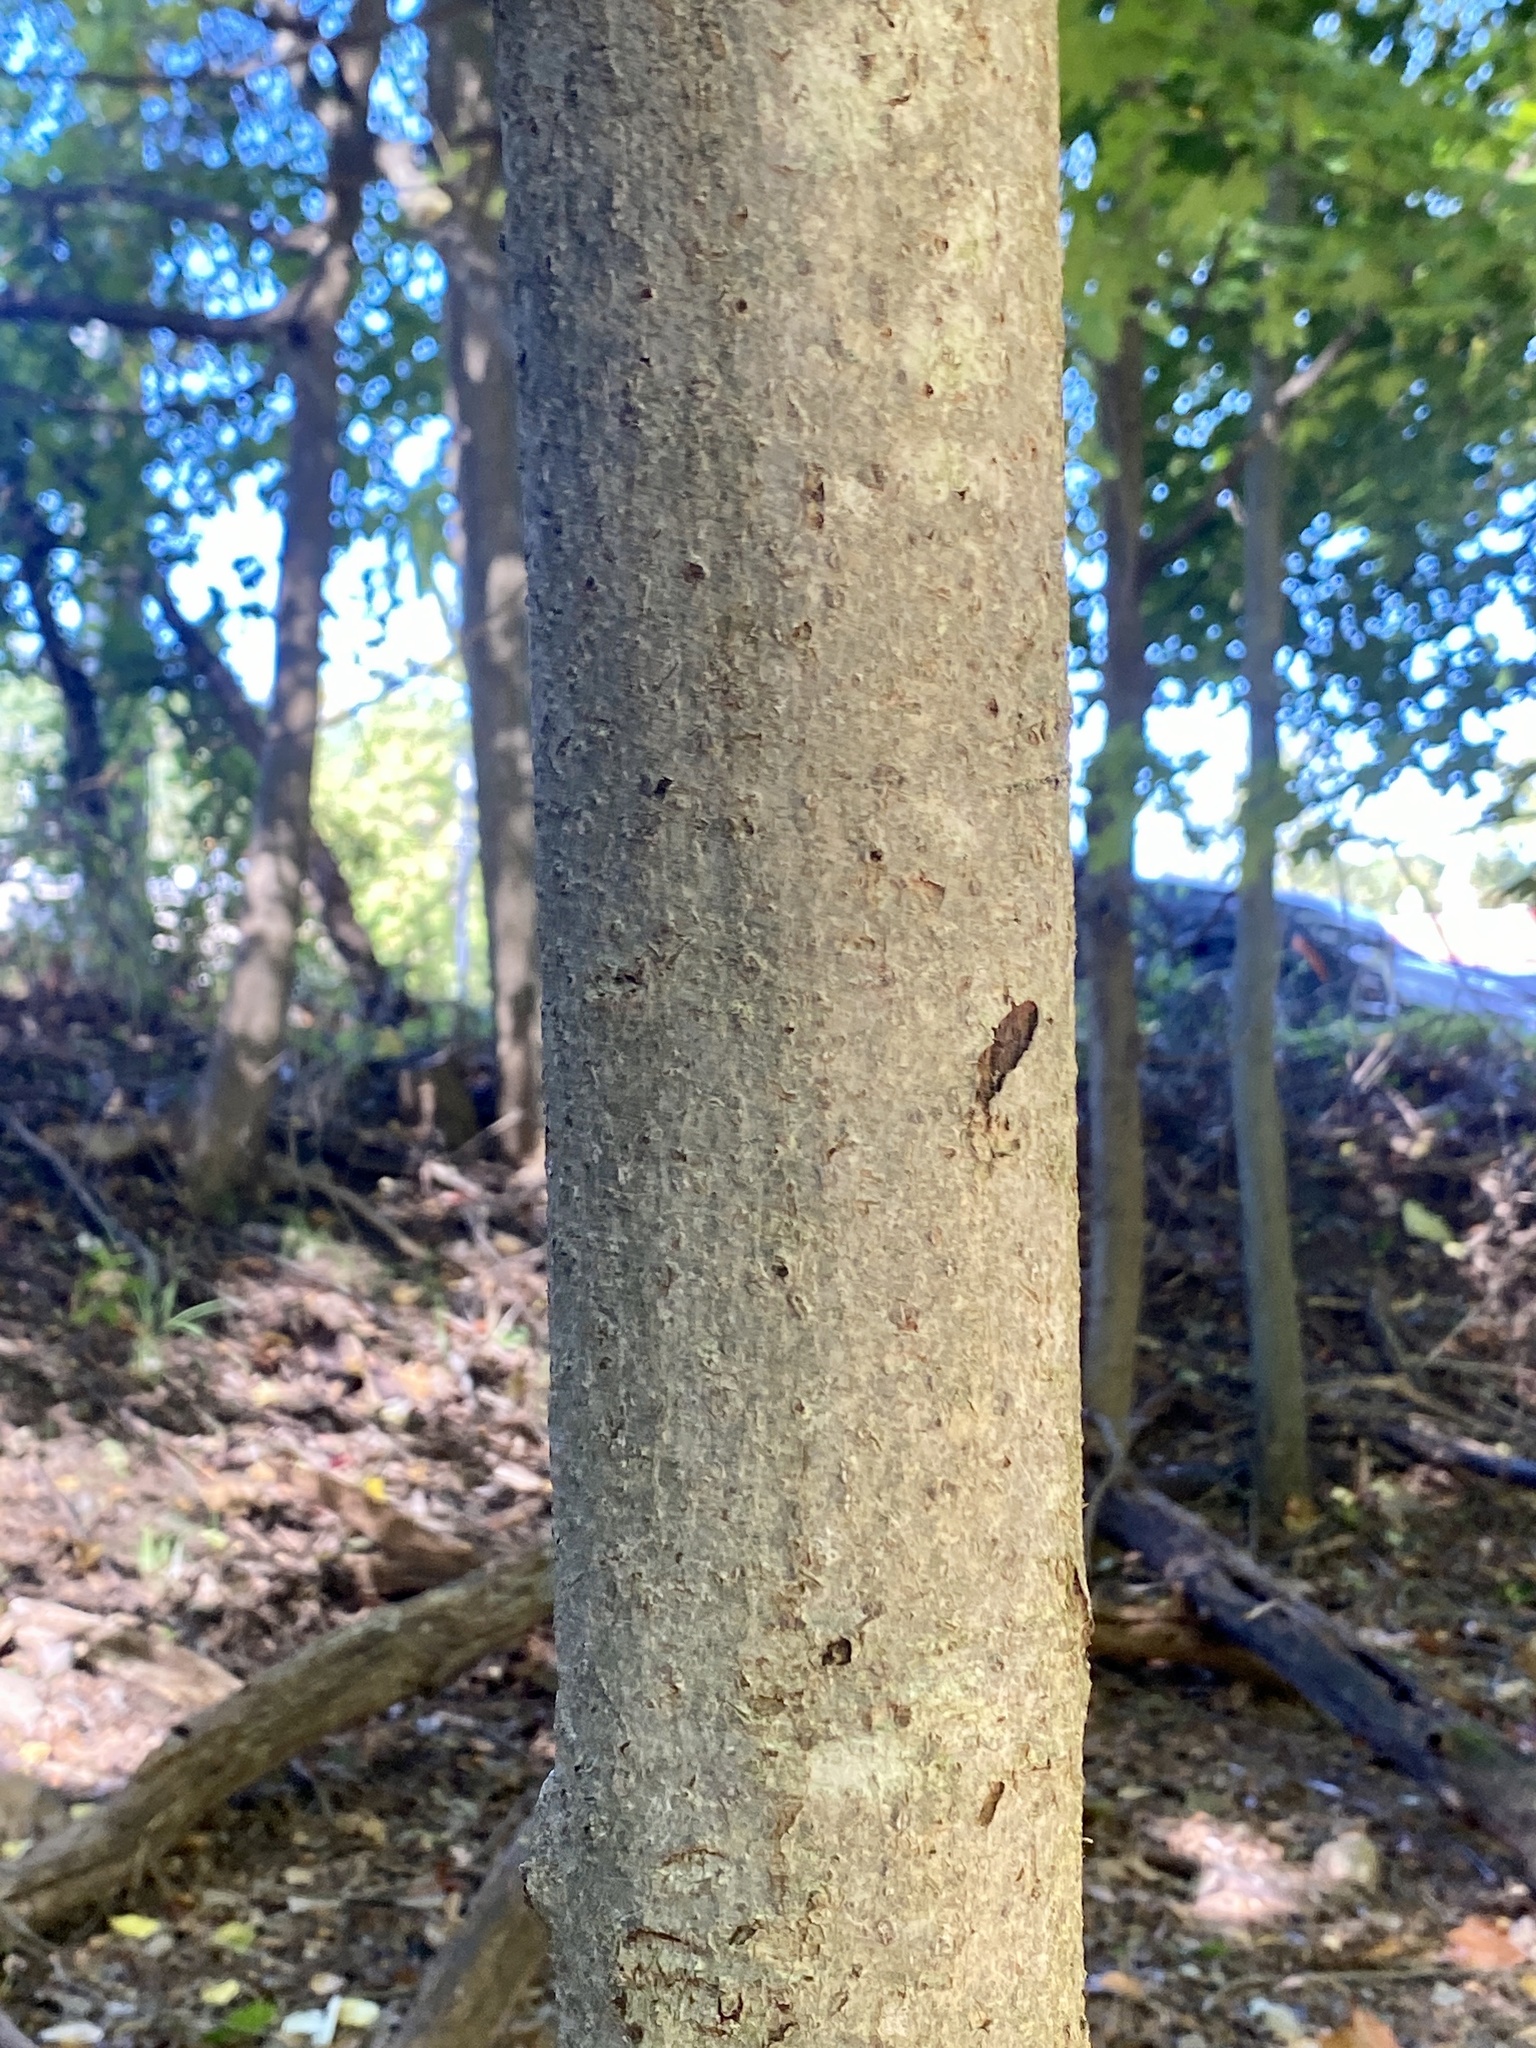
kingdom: Plantae
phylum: Tracheophyta
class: Magnoliopsida
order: Magnoliales
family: Magnoliaceae
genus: Magnolia
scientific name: Magnolia tripetala
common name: Umbrella magnolia
